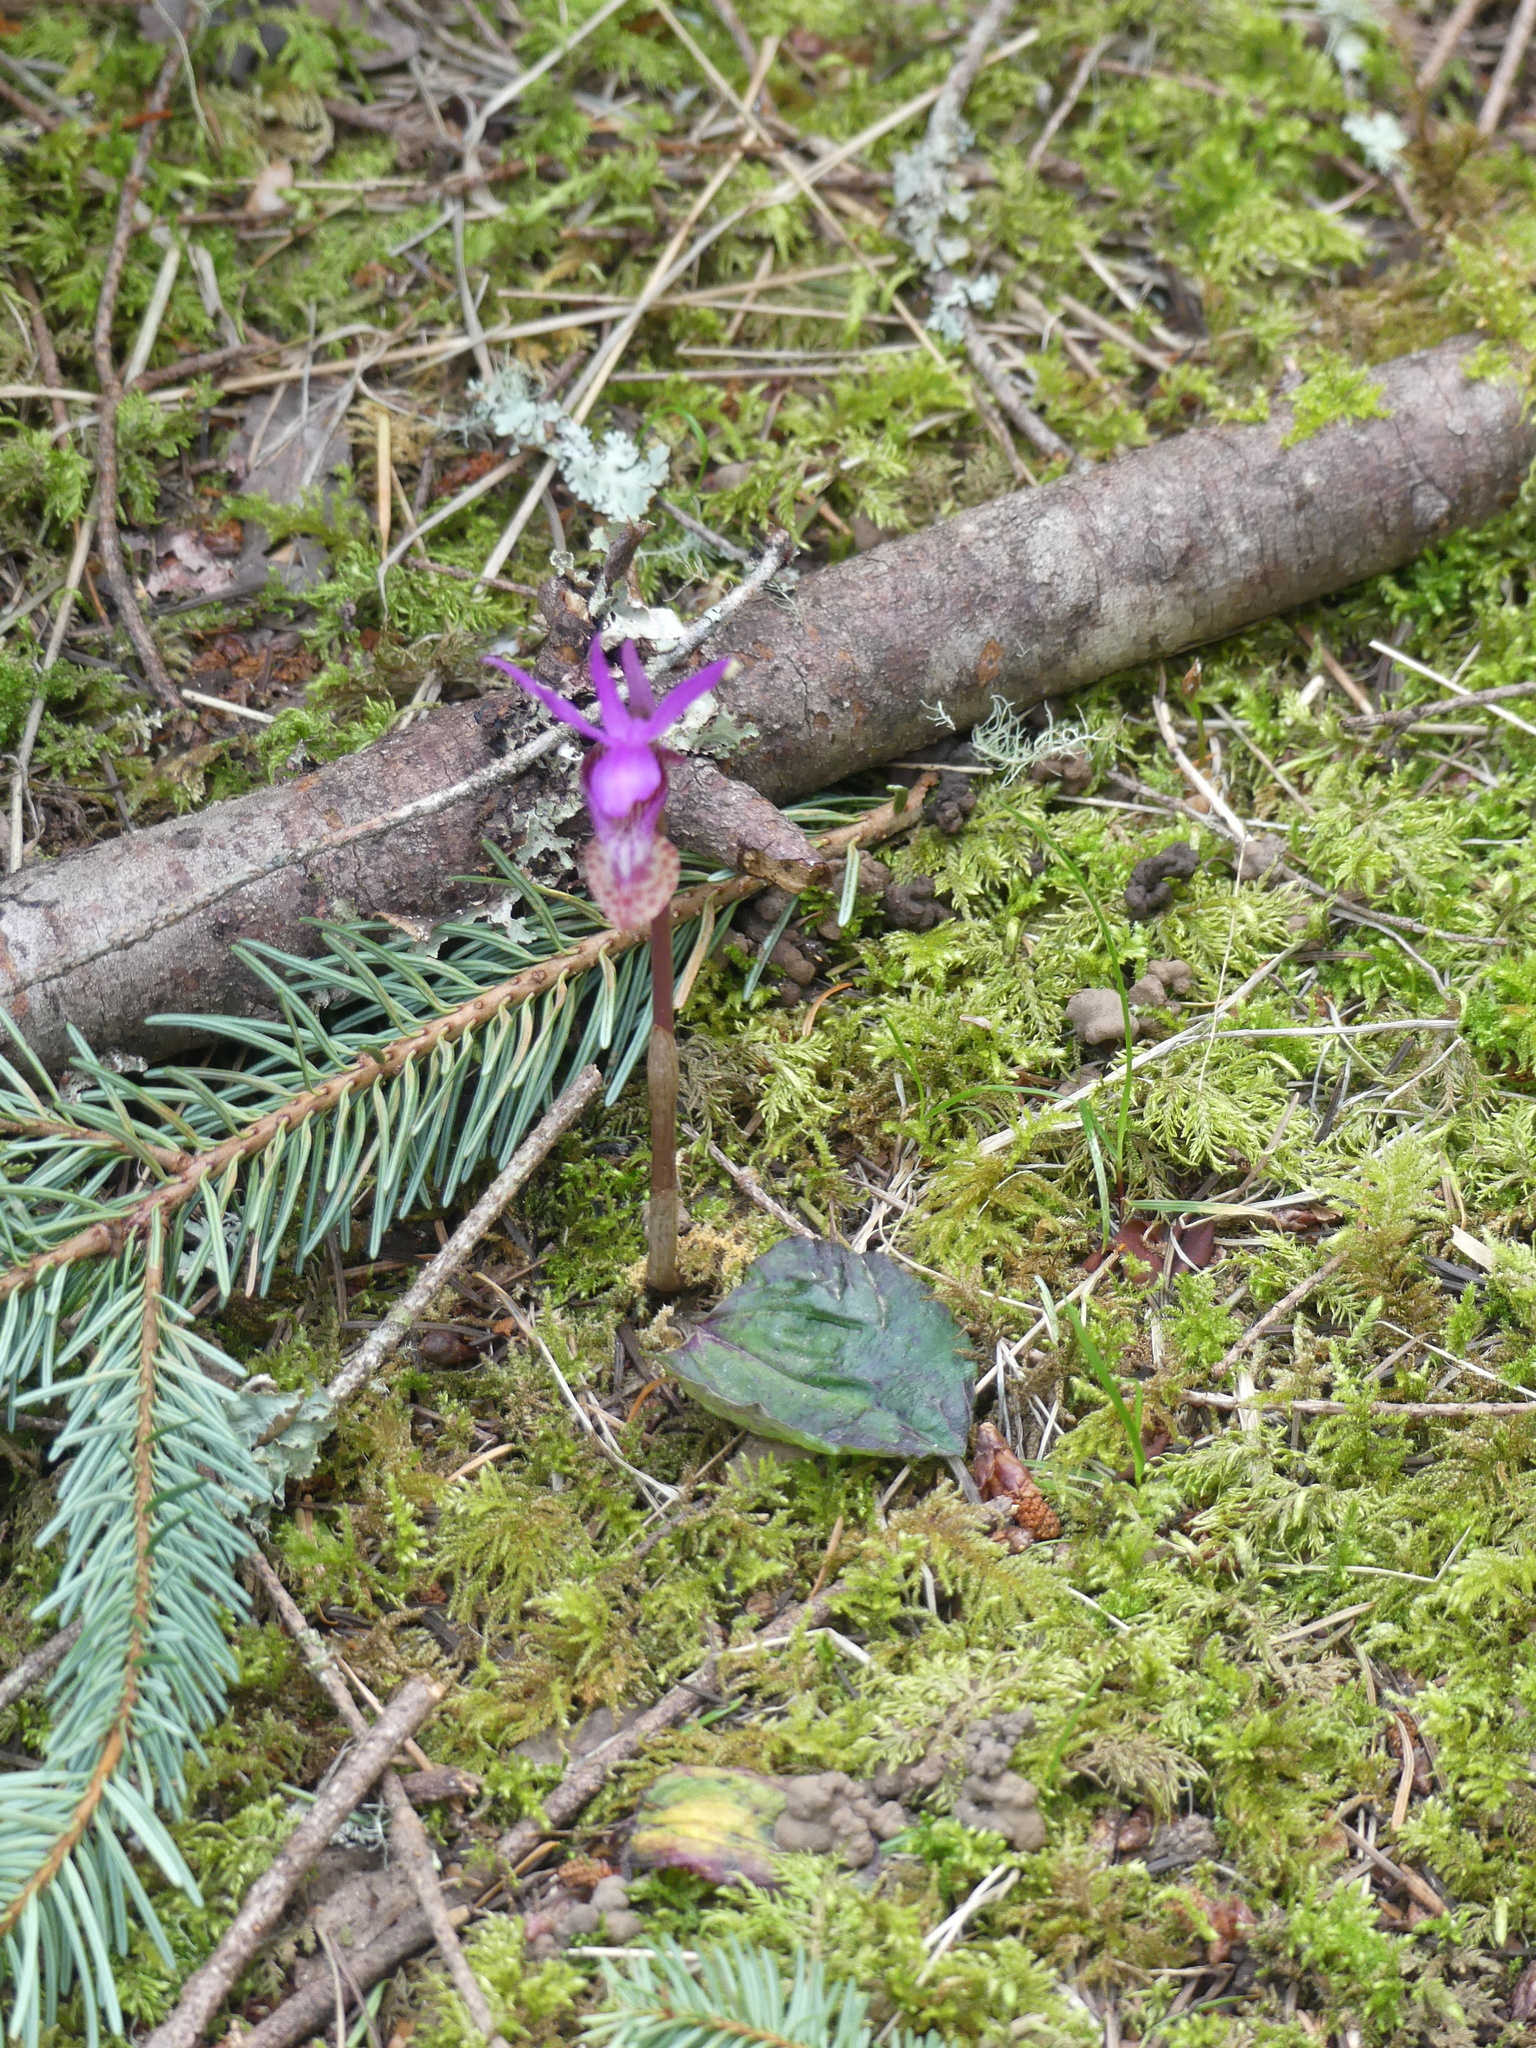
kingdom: Plantae
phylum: Tracheophyta
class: Liliopsida
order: Asparagales
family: Orchidaceae
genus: Calypso
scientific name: Calypso bulbosa
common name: Calypso
